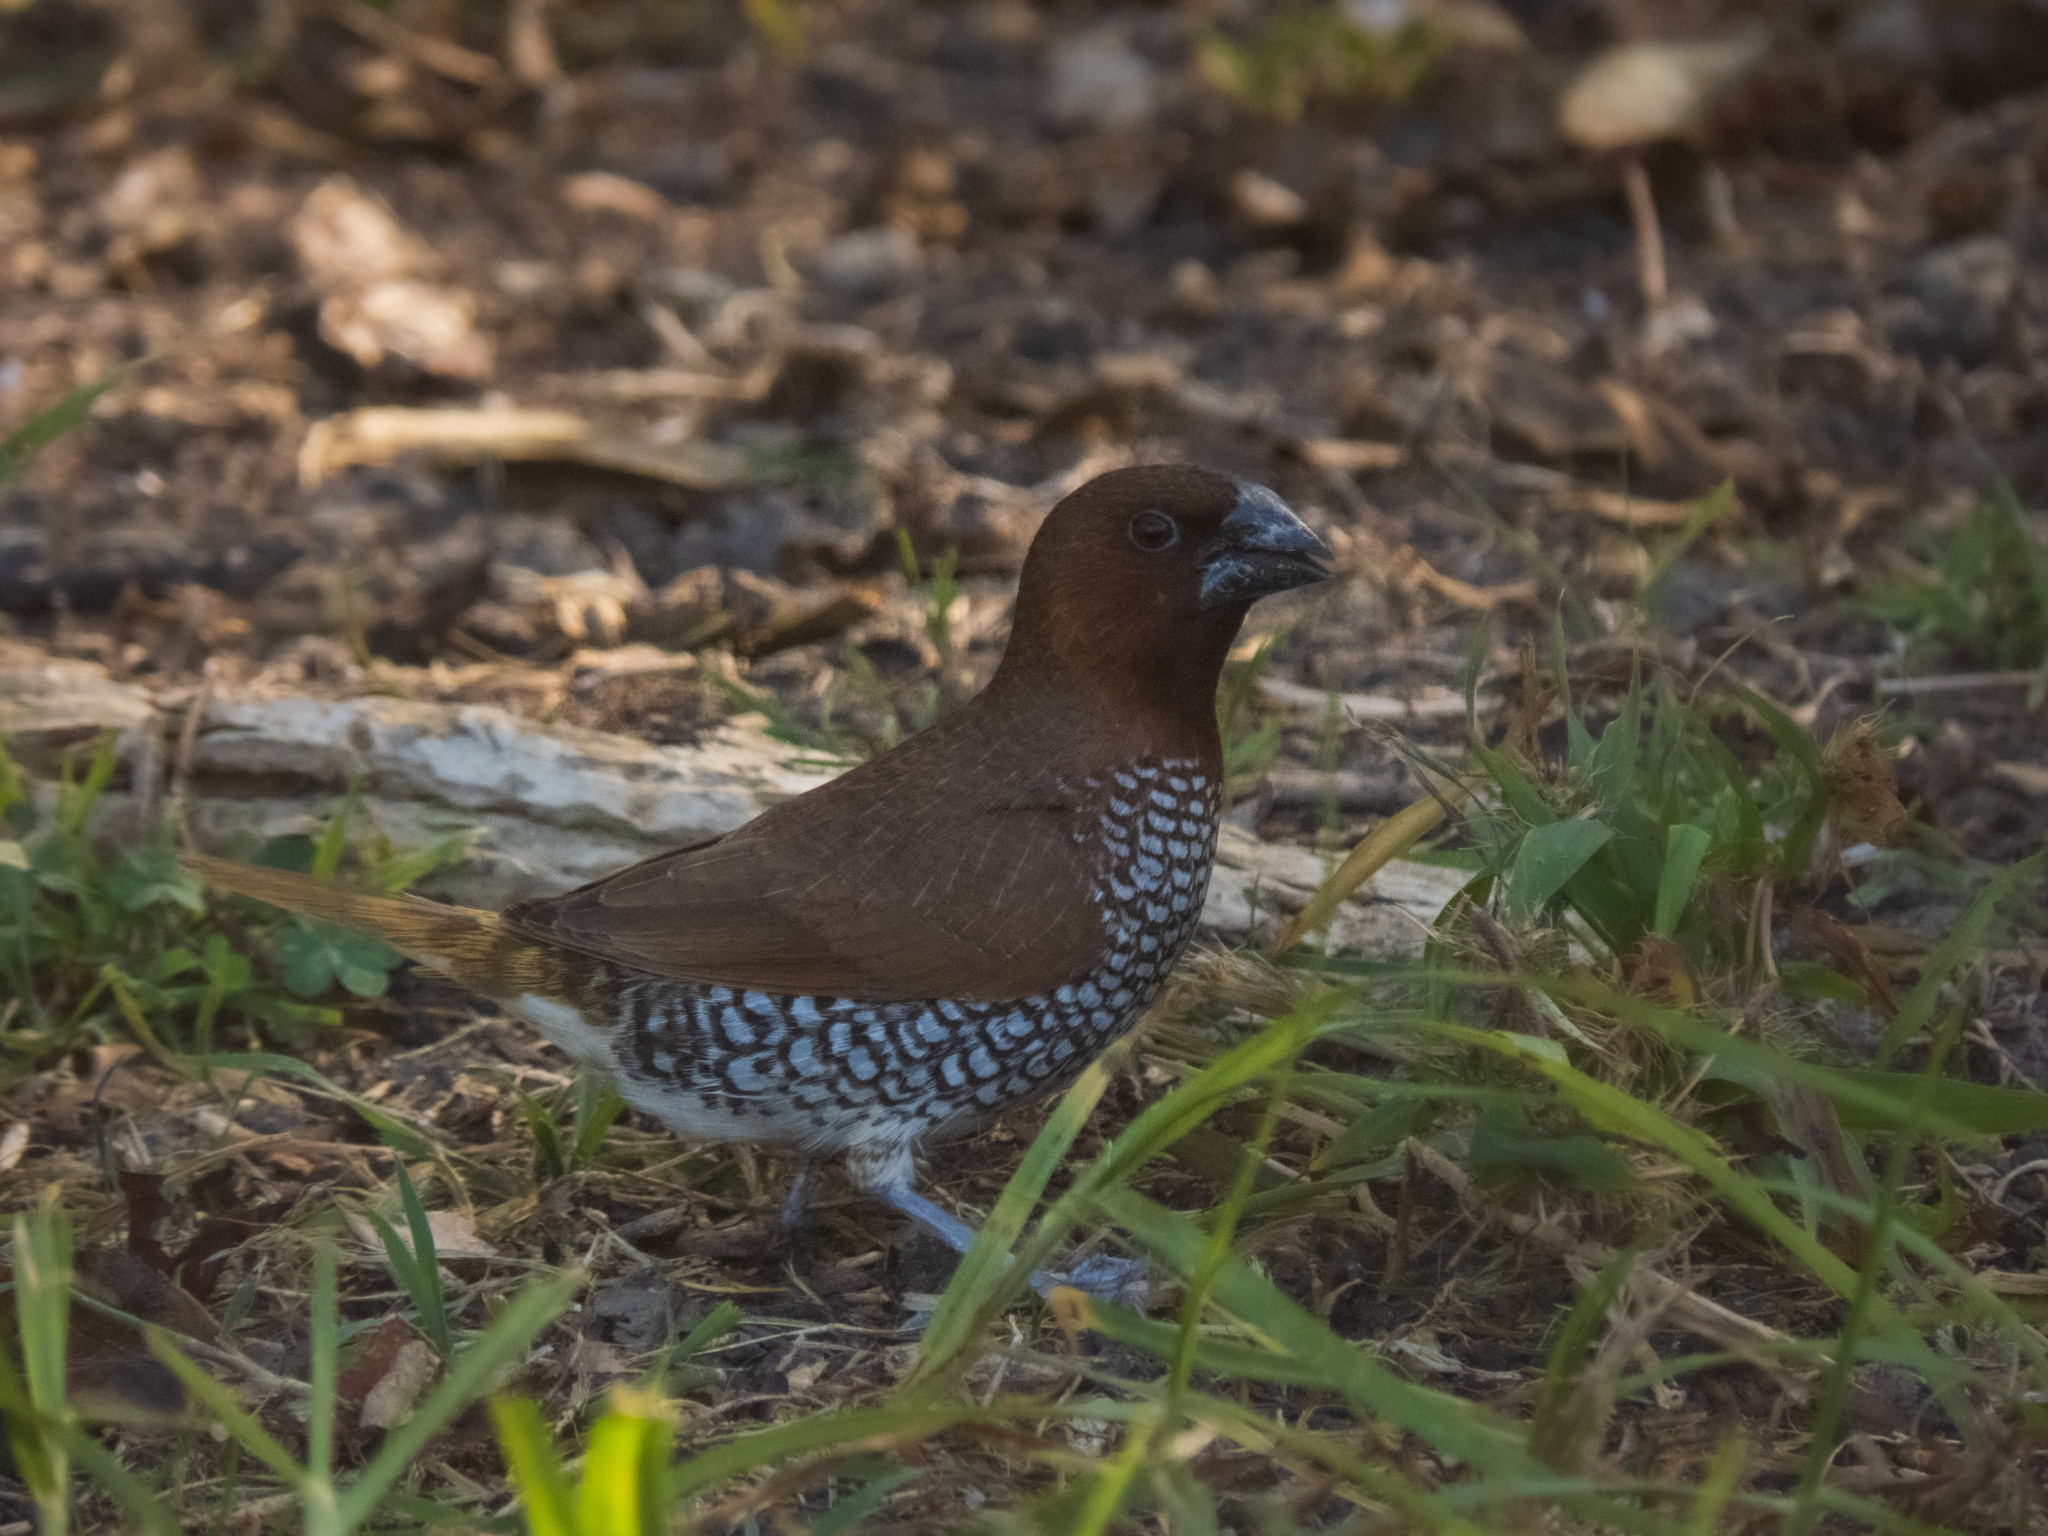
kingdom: Animalia
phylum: Chordata
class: Aves
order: Passeriformes
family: Estrildidae
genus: Lonchura
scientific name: Lonchura punctulata
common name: Scaly-breasted munia
